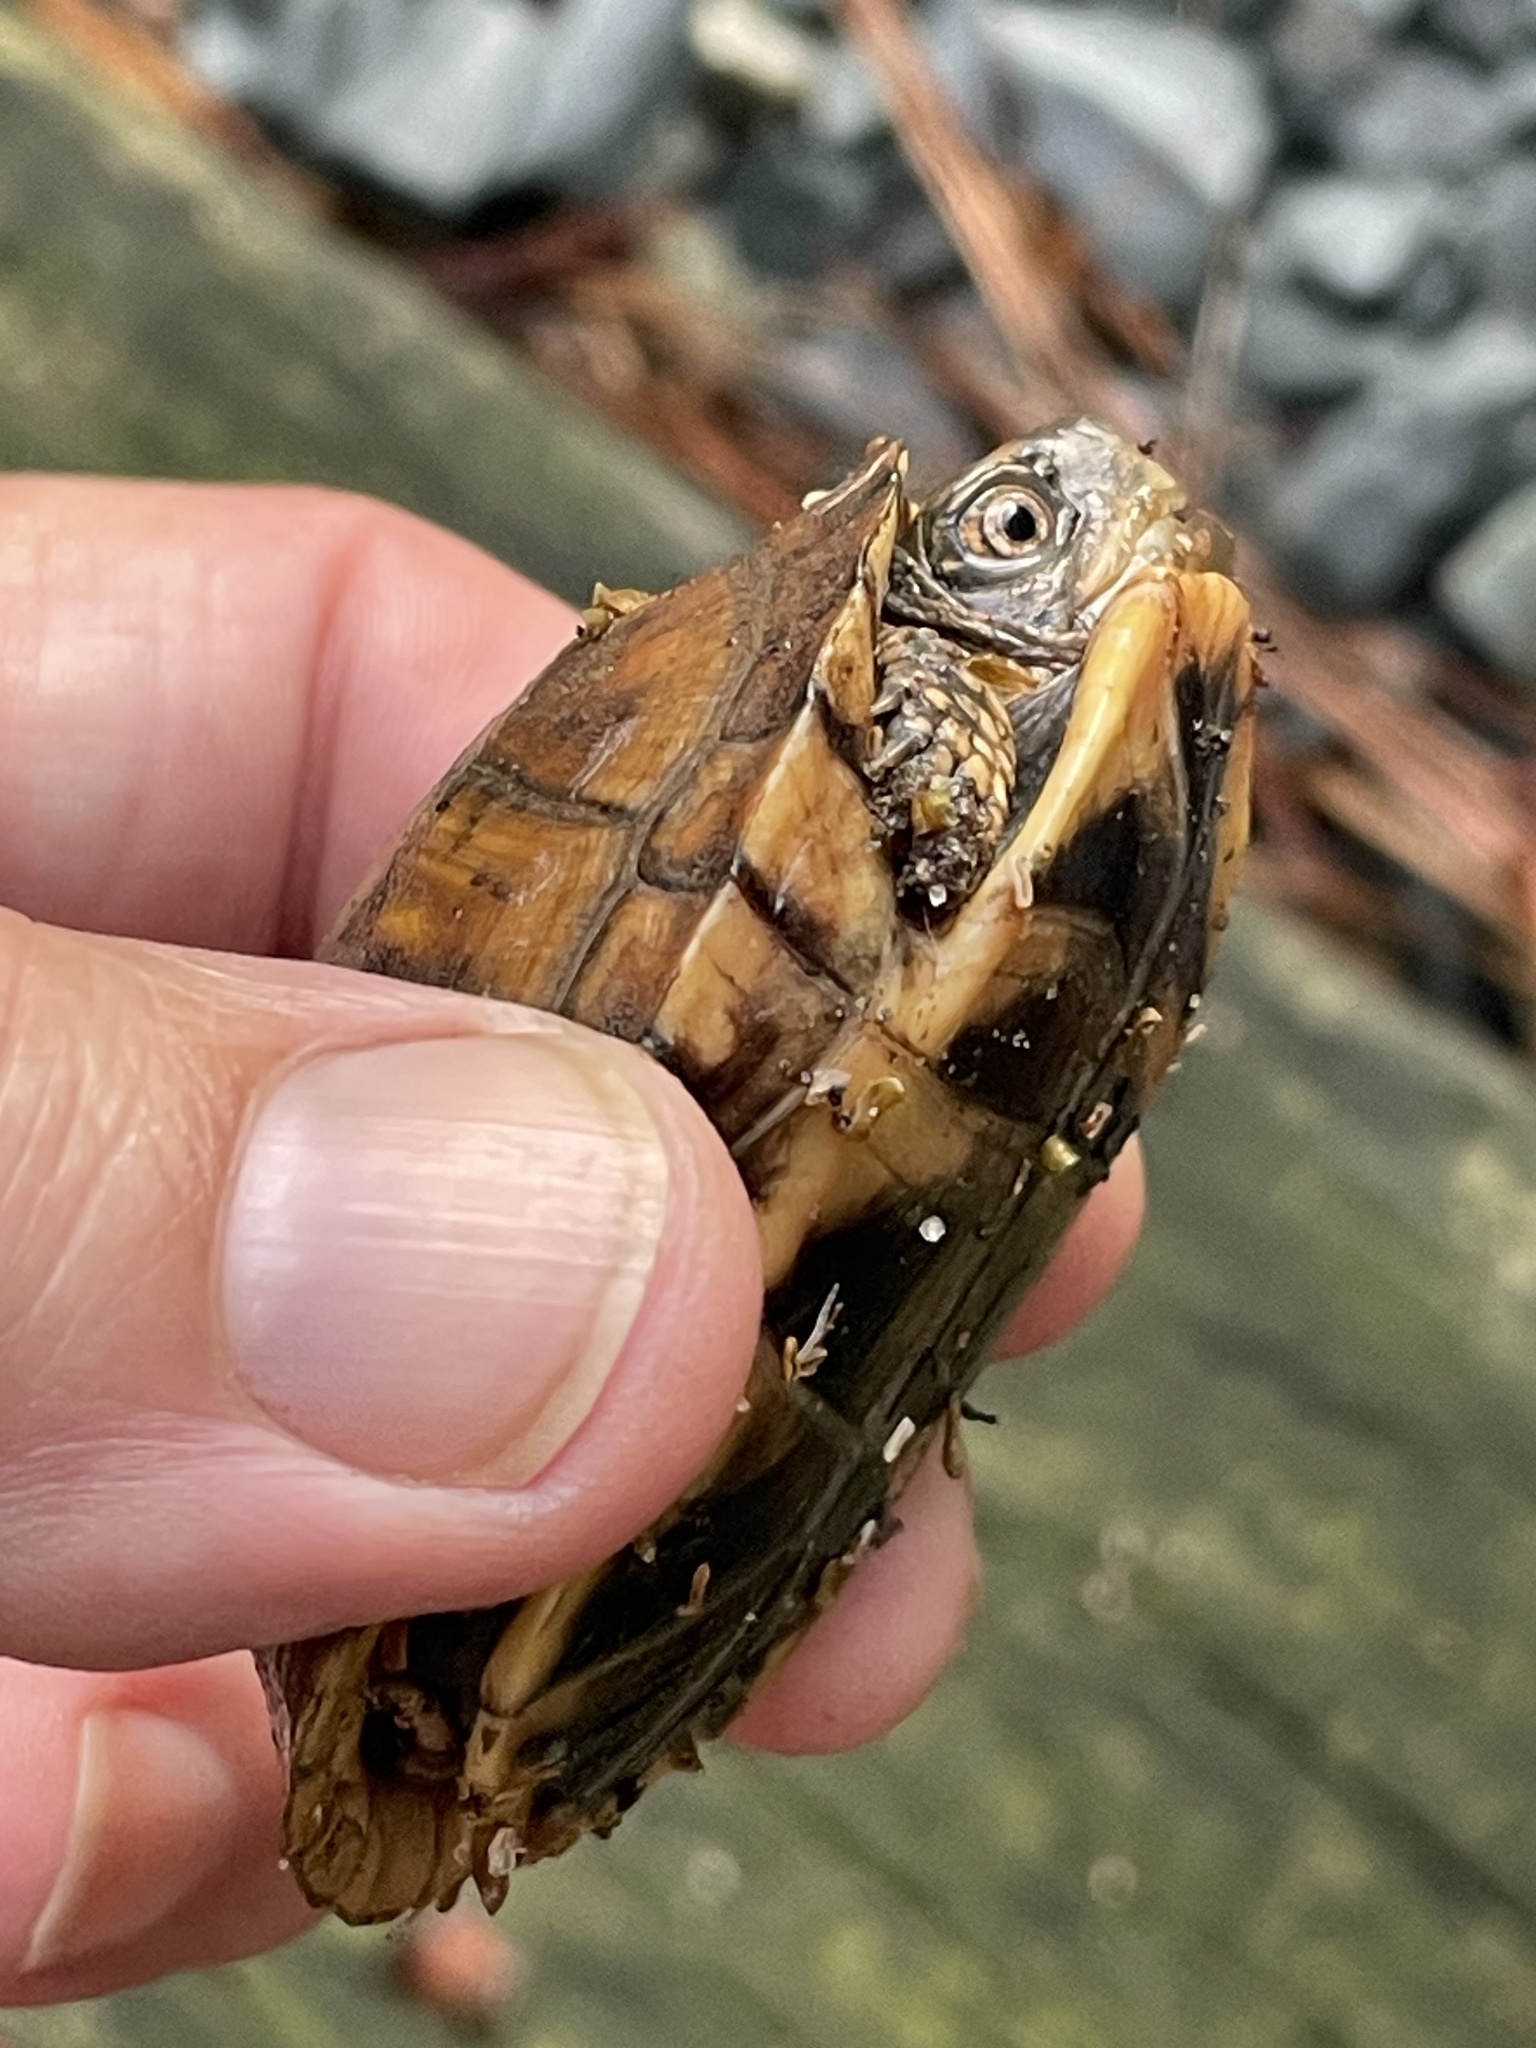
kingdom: Animalia
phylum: Chordata
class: Testudines
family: Emydidae
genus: Terrapene
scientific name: Terrapene carolina
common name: Common box turtle
